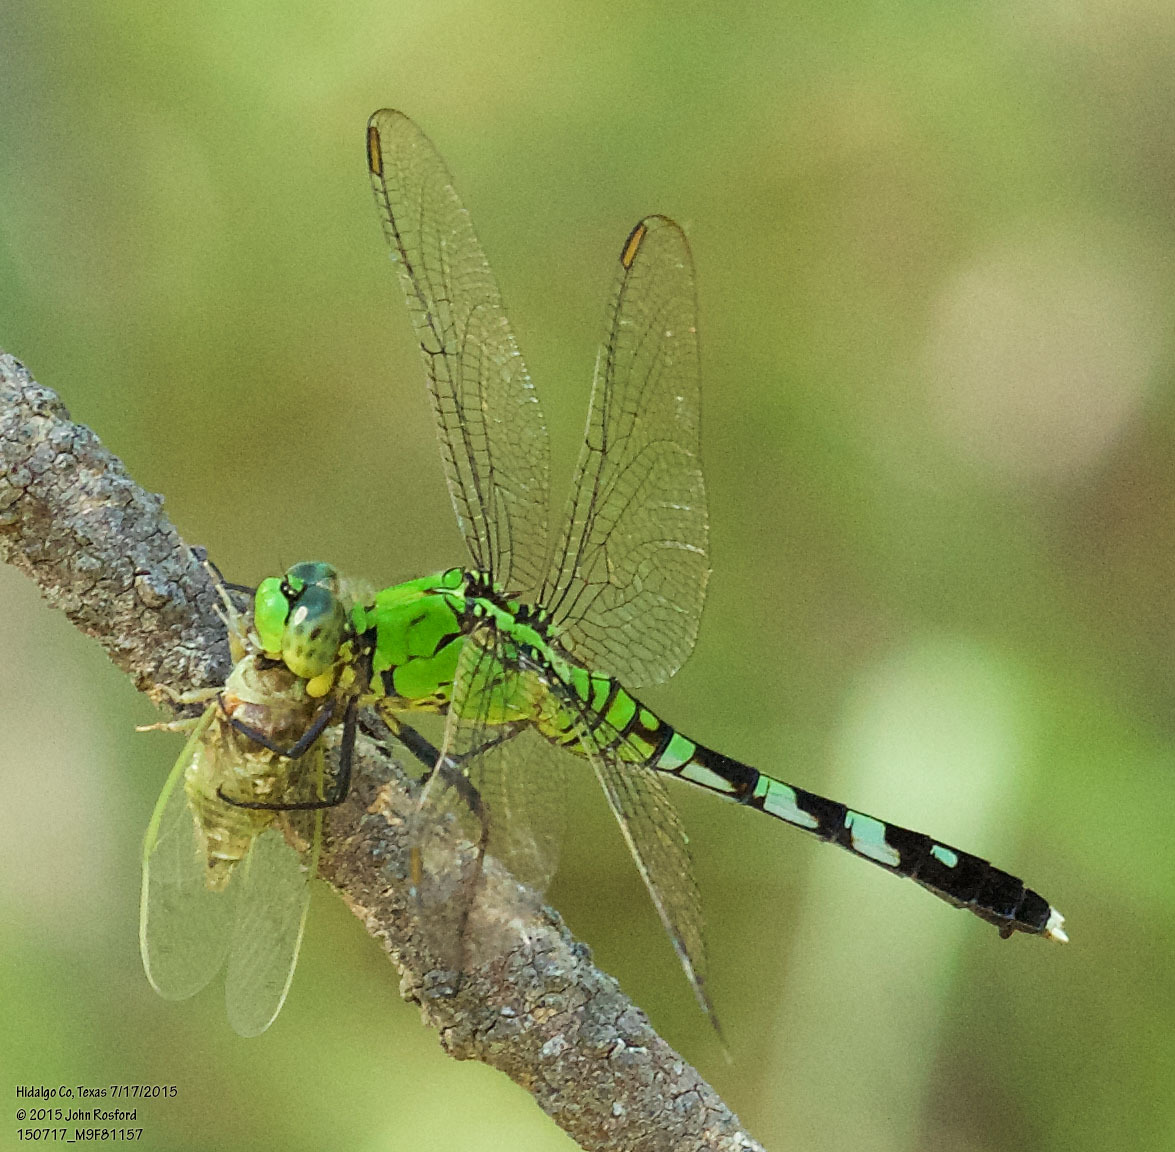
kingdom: Animalia
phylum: Arthropoda
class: Insecta
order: Odonata
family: Libellulidae
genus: Erythemis
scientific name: Erythemis simplicicollis
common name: Eastern pondhawk
